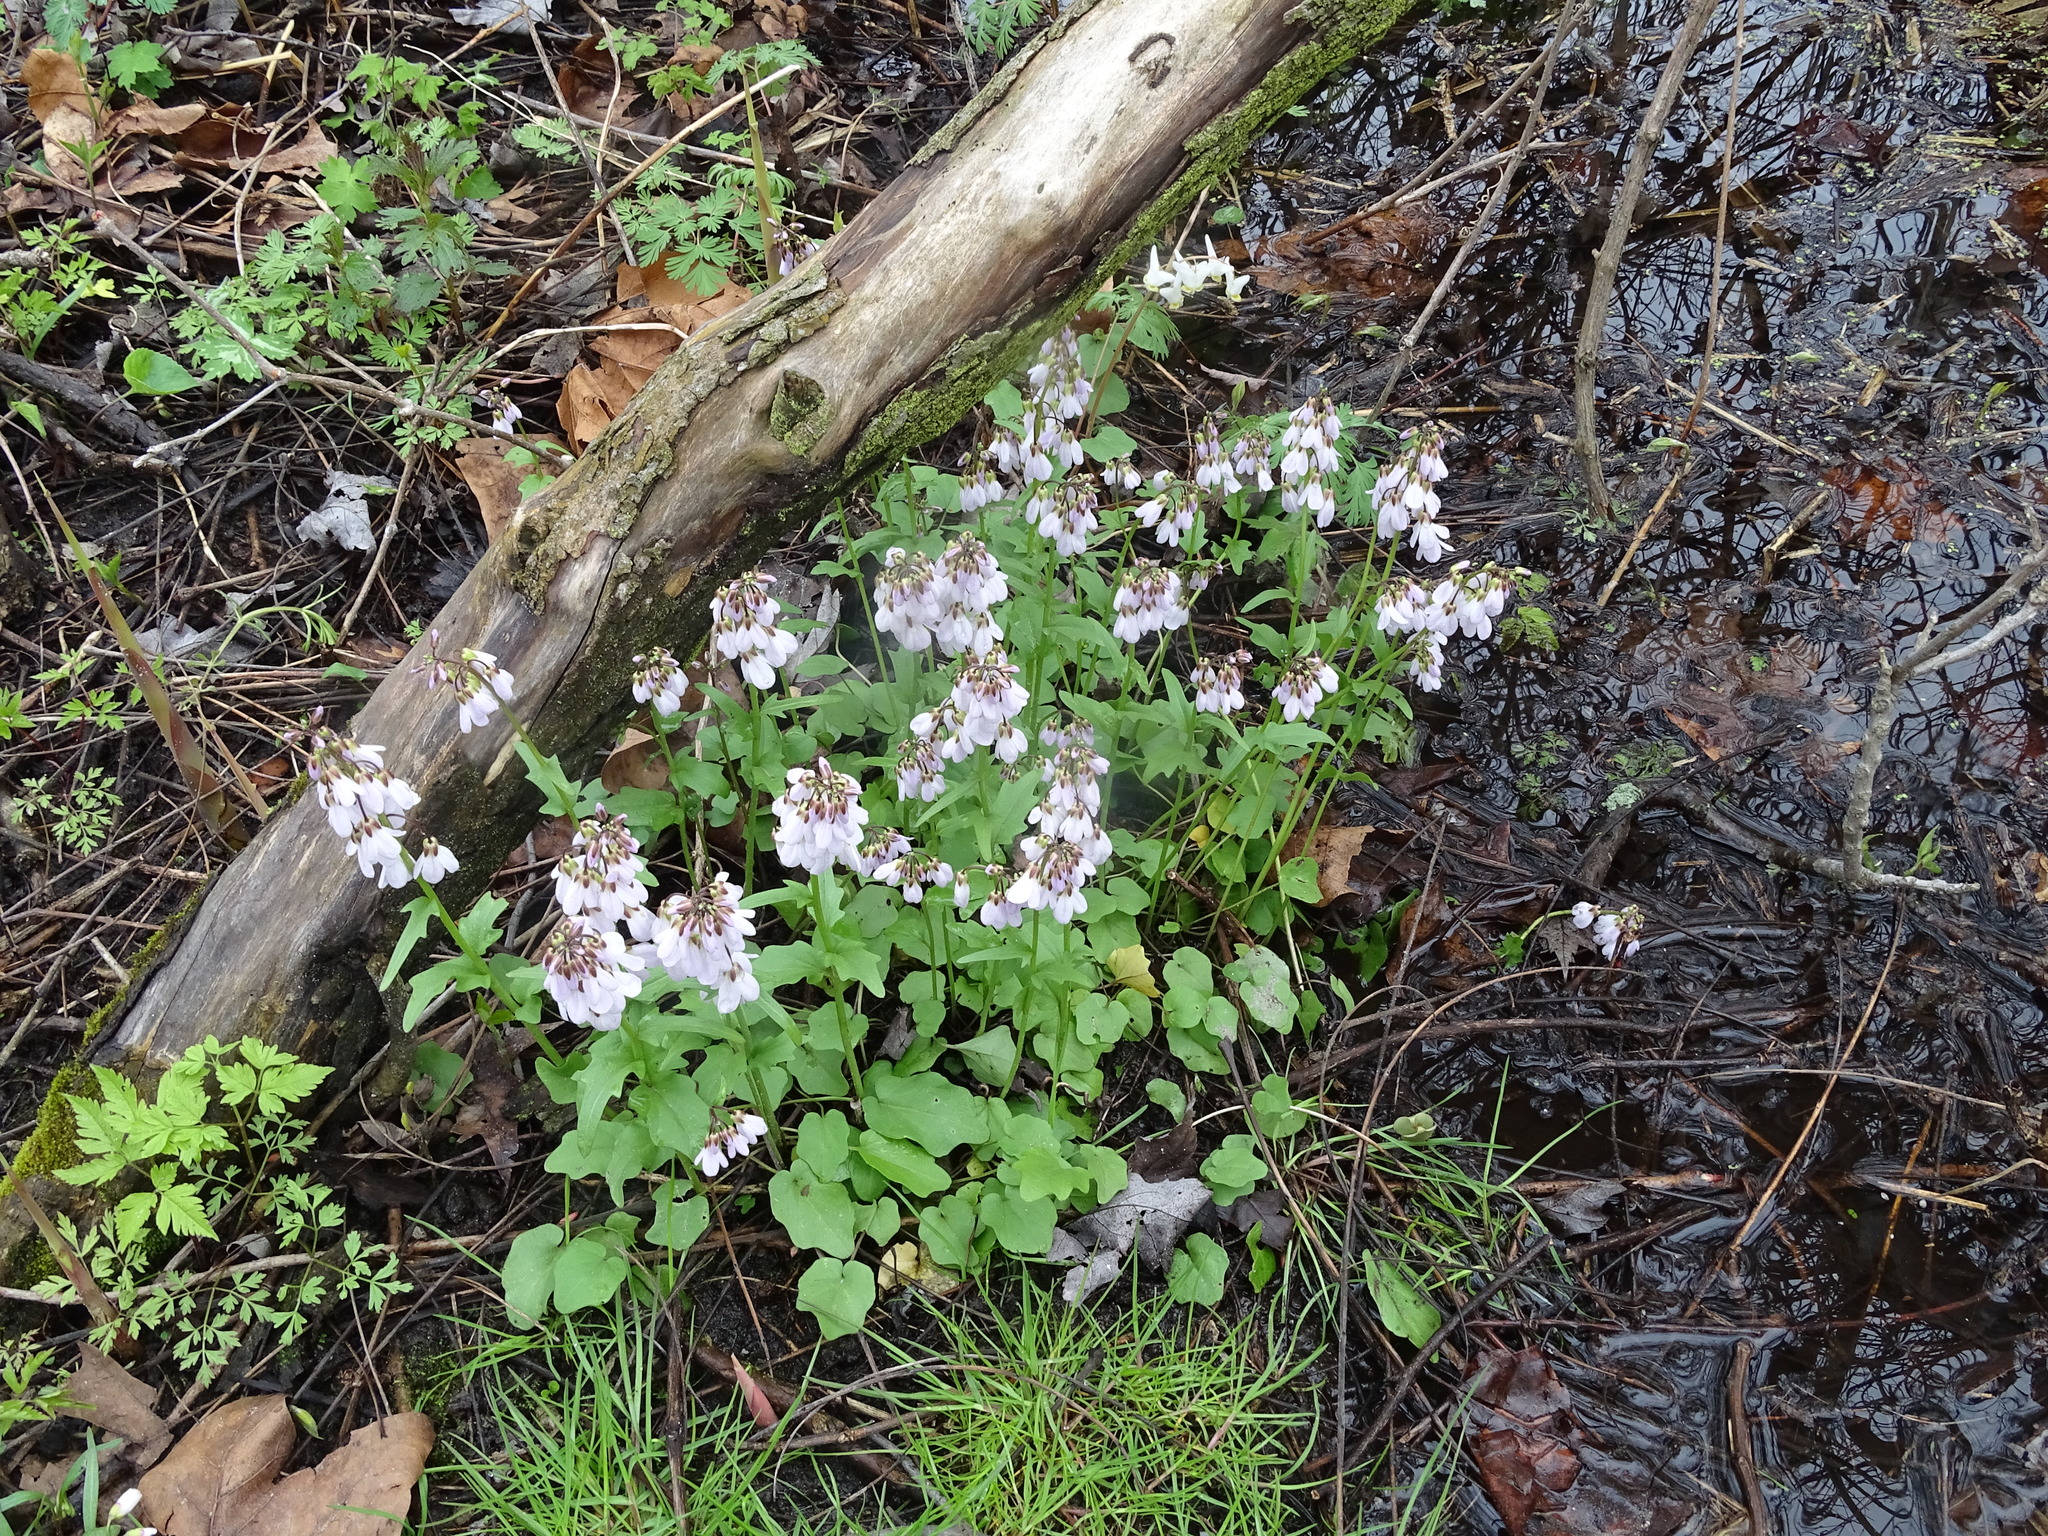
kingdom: Plantae
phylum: Tracheophyta
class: Magnoliopsida
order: Brassicales
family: Brassicaceae
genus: Cardamine
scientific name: Cardamine douglassii
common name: Purple cress
